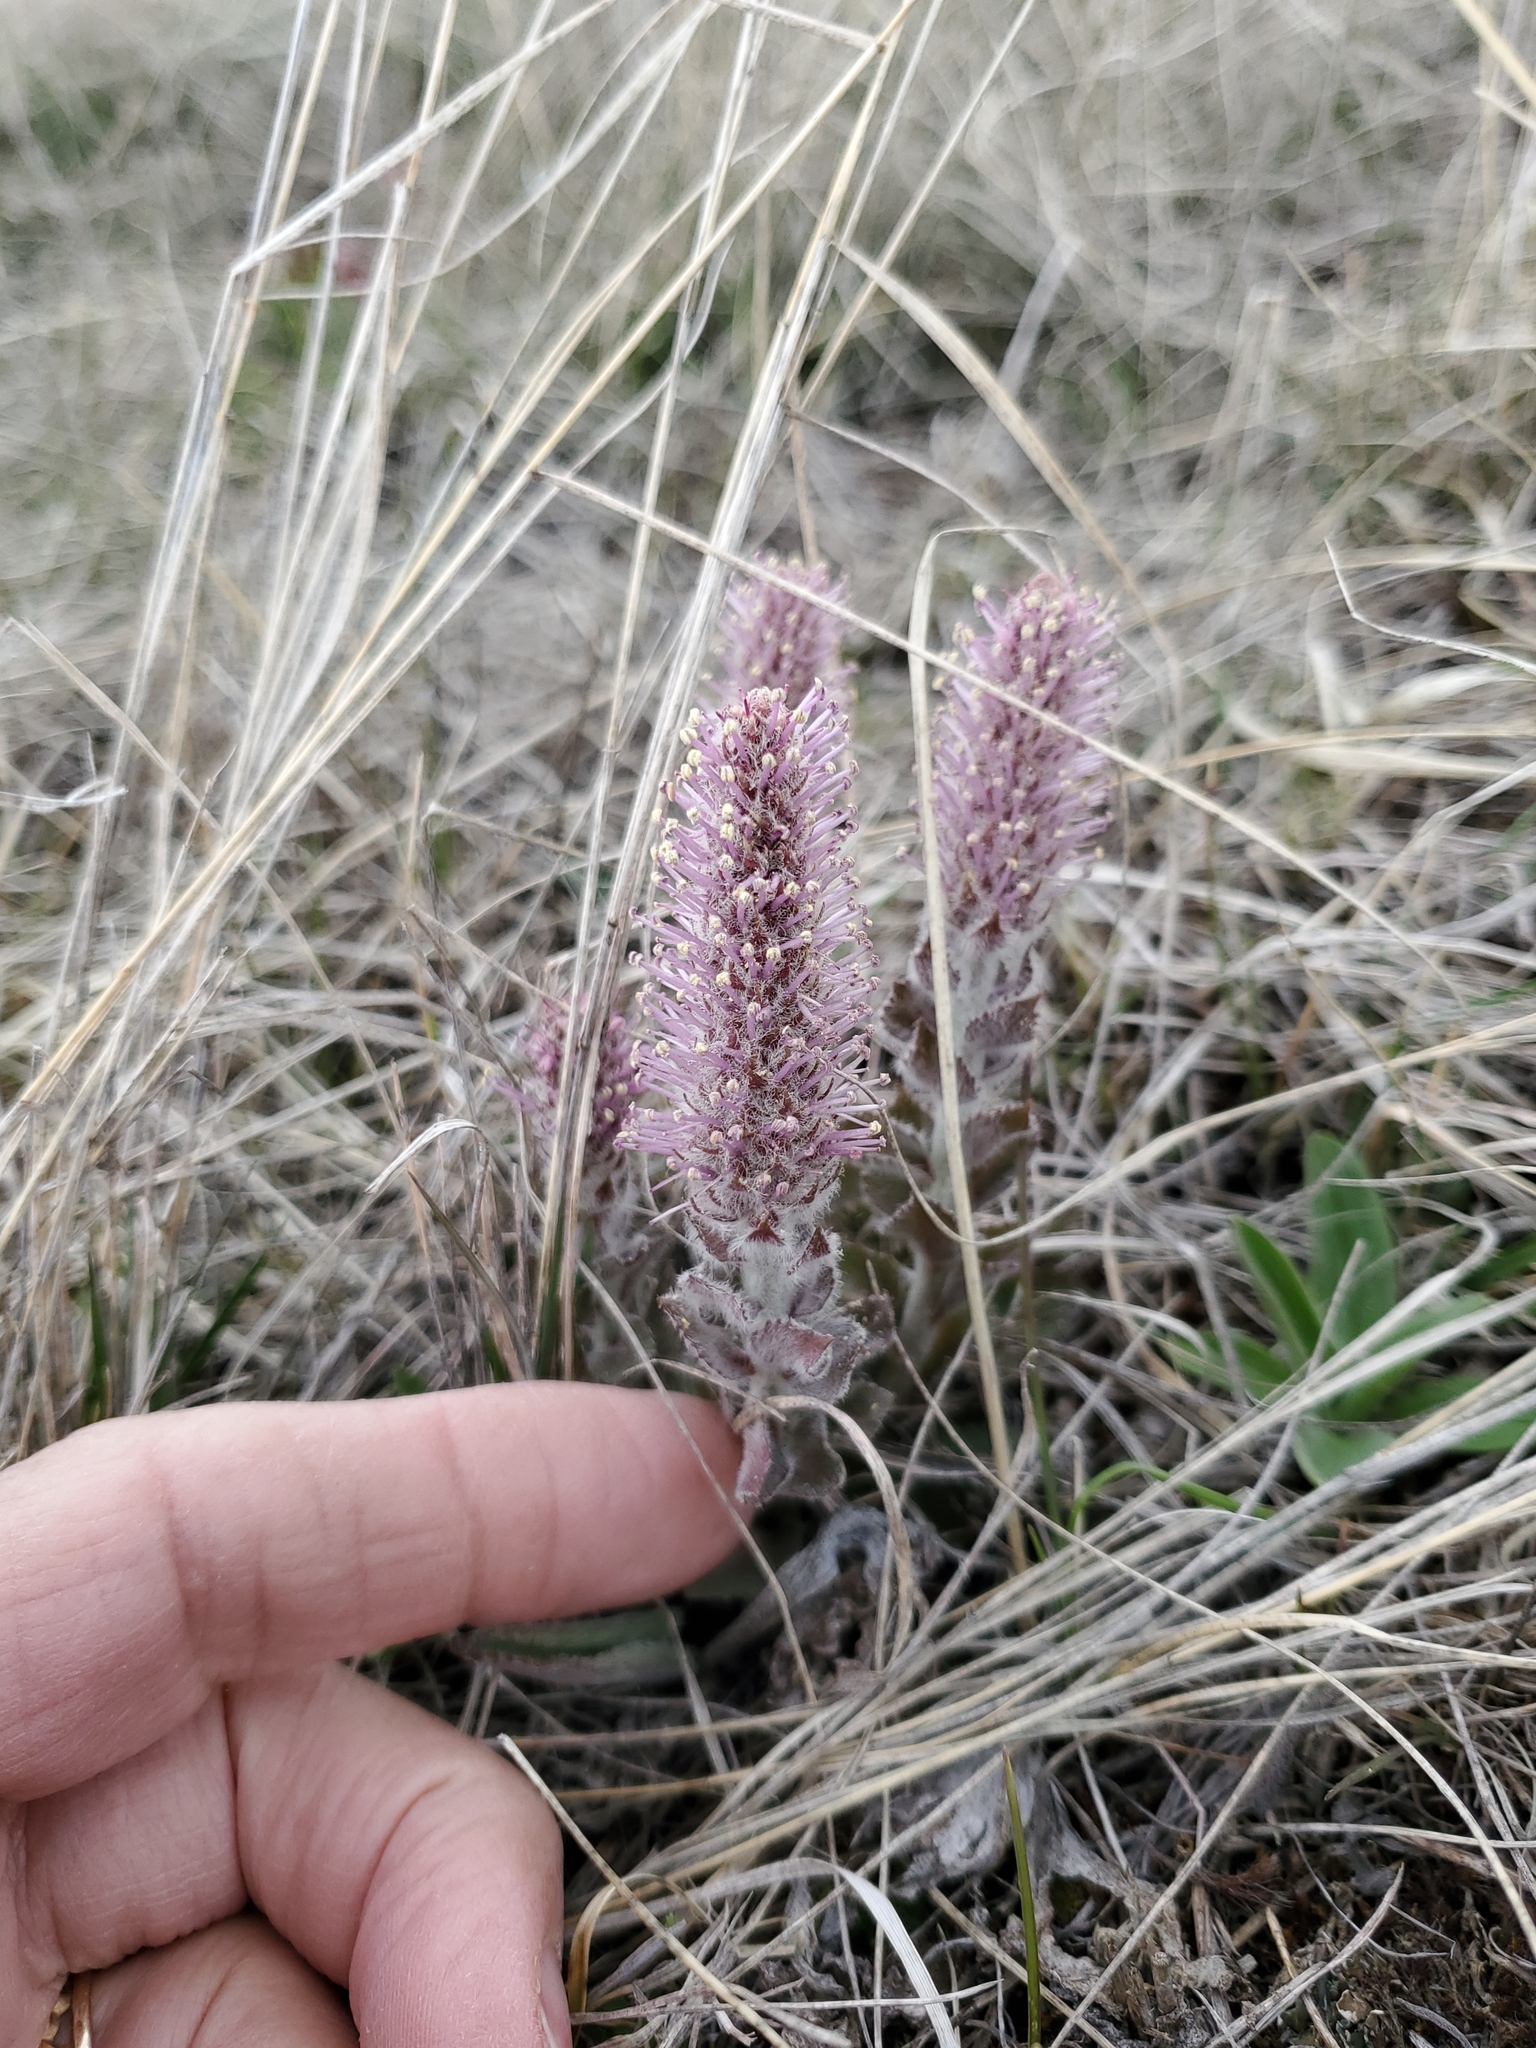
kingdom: Plantae
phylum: Tracheophyta
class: Magnoliopsida
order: Lamiales
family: Plantaginaceae
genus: Synthyris
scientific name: Synthyris wyomingensis
